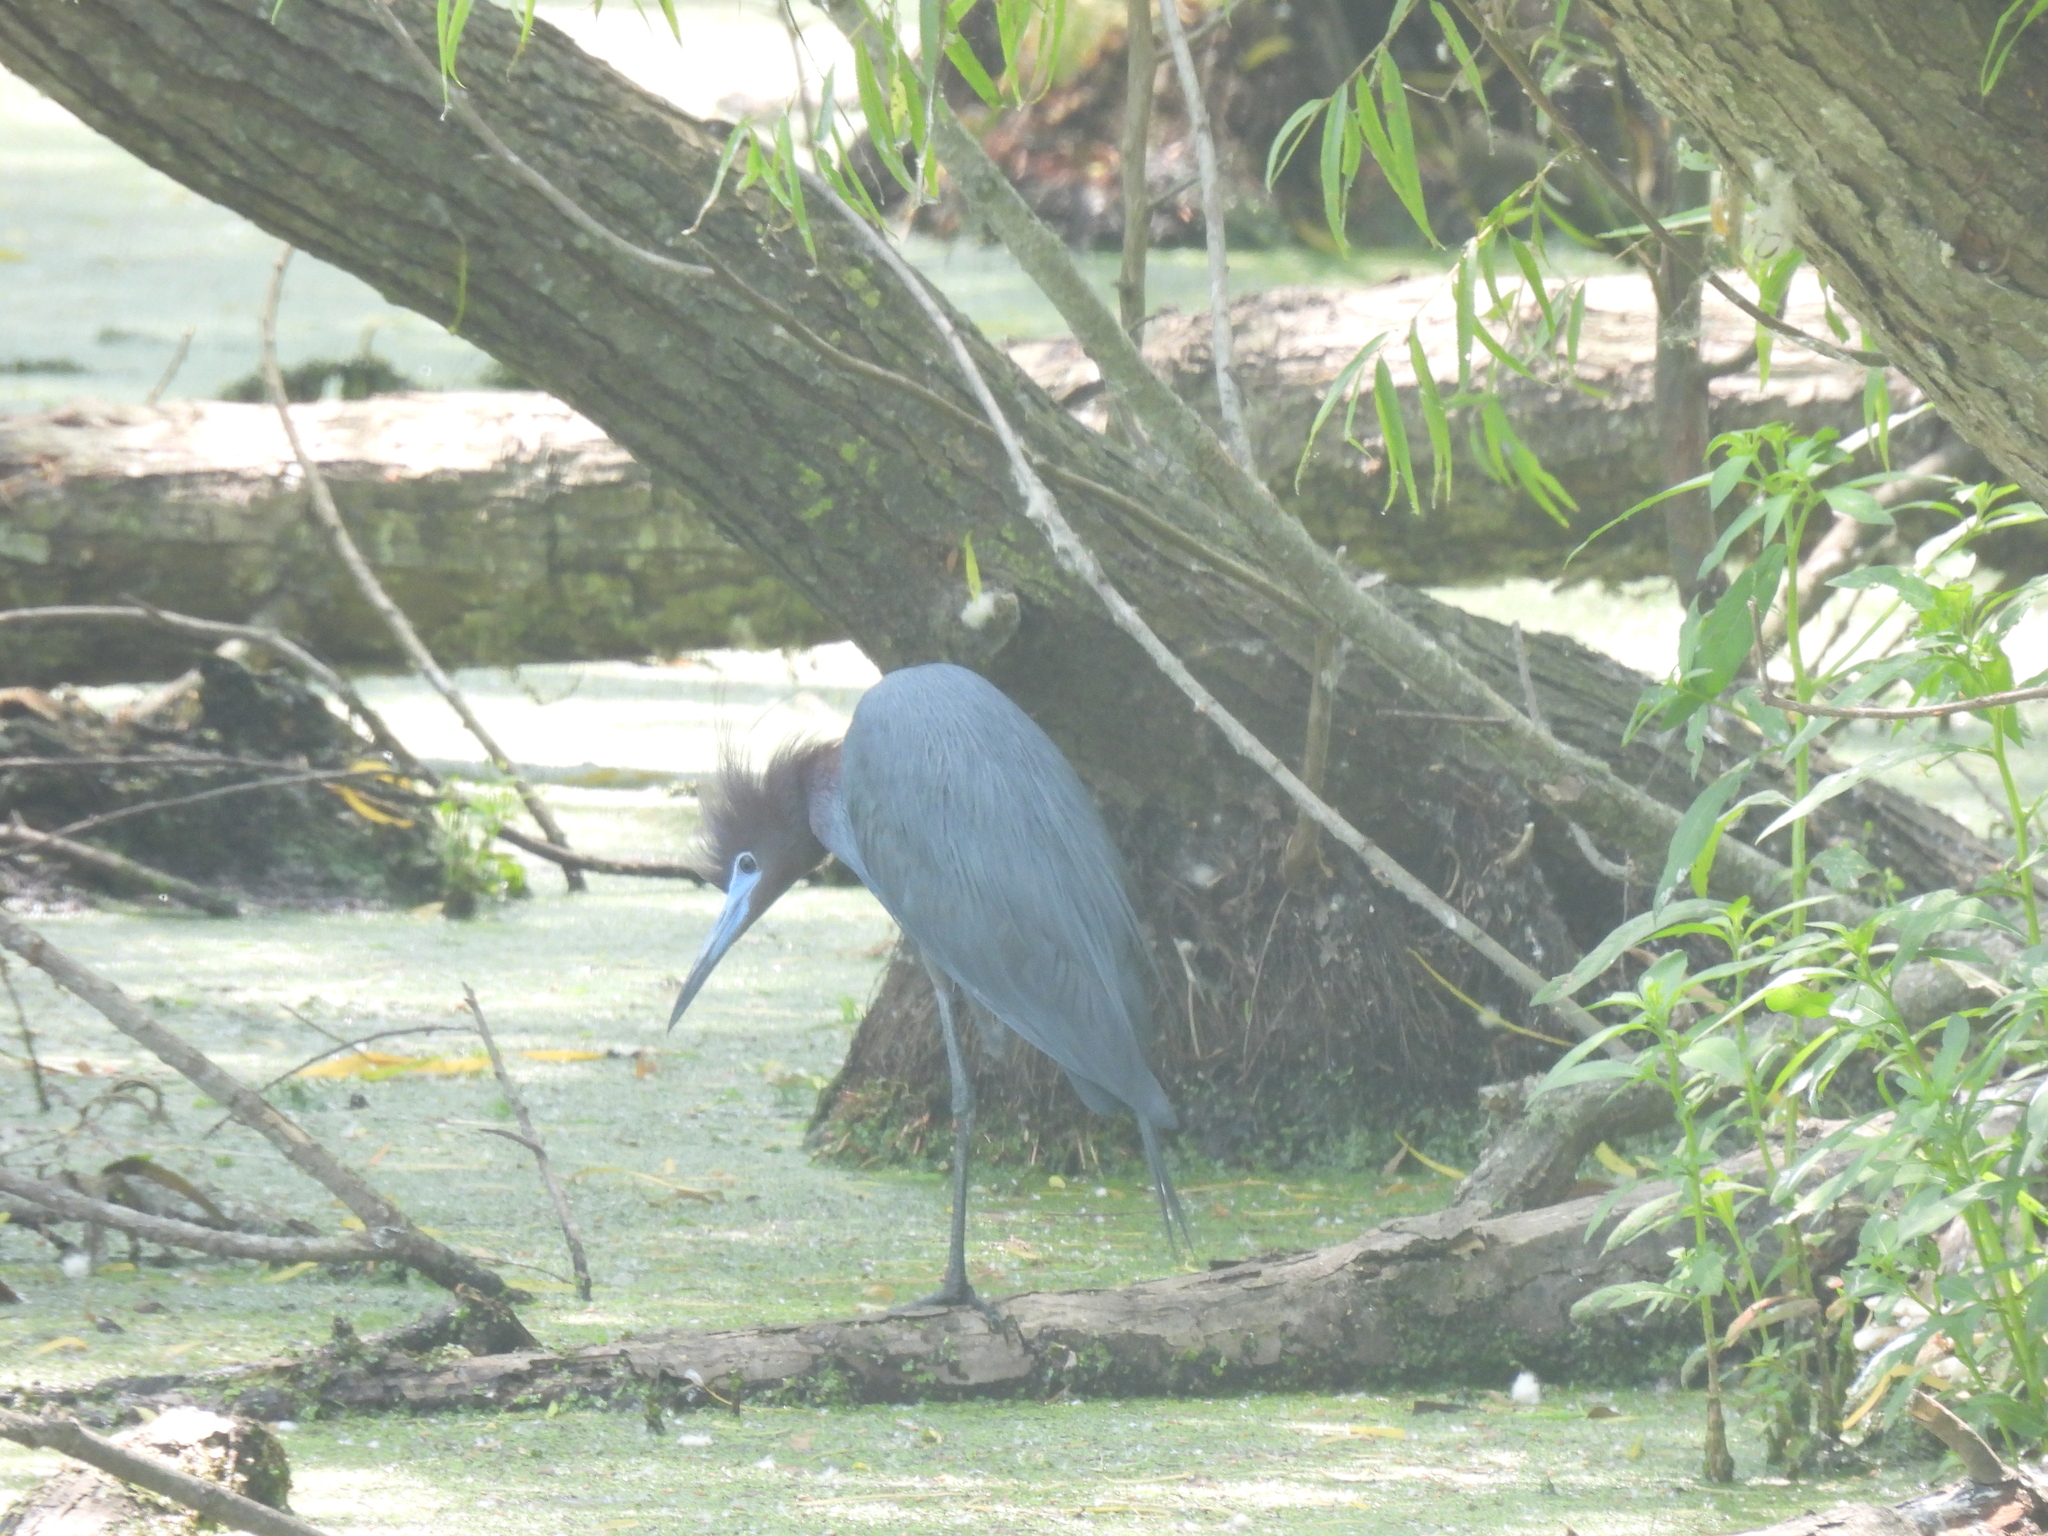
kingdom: Animalia
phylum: Chordata
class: Aves
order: Pelecaniformes
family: Ardeidae
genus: Egretta
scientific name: Egretta caerulea
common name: Little blue heron
